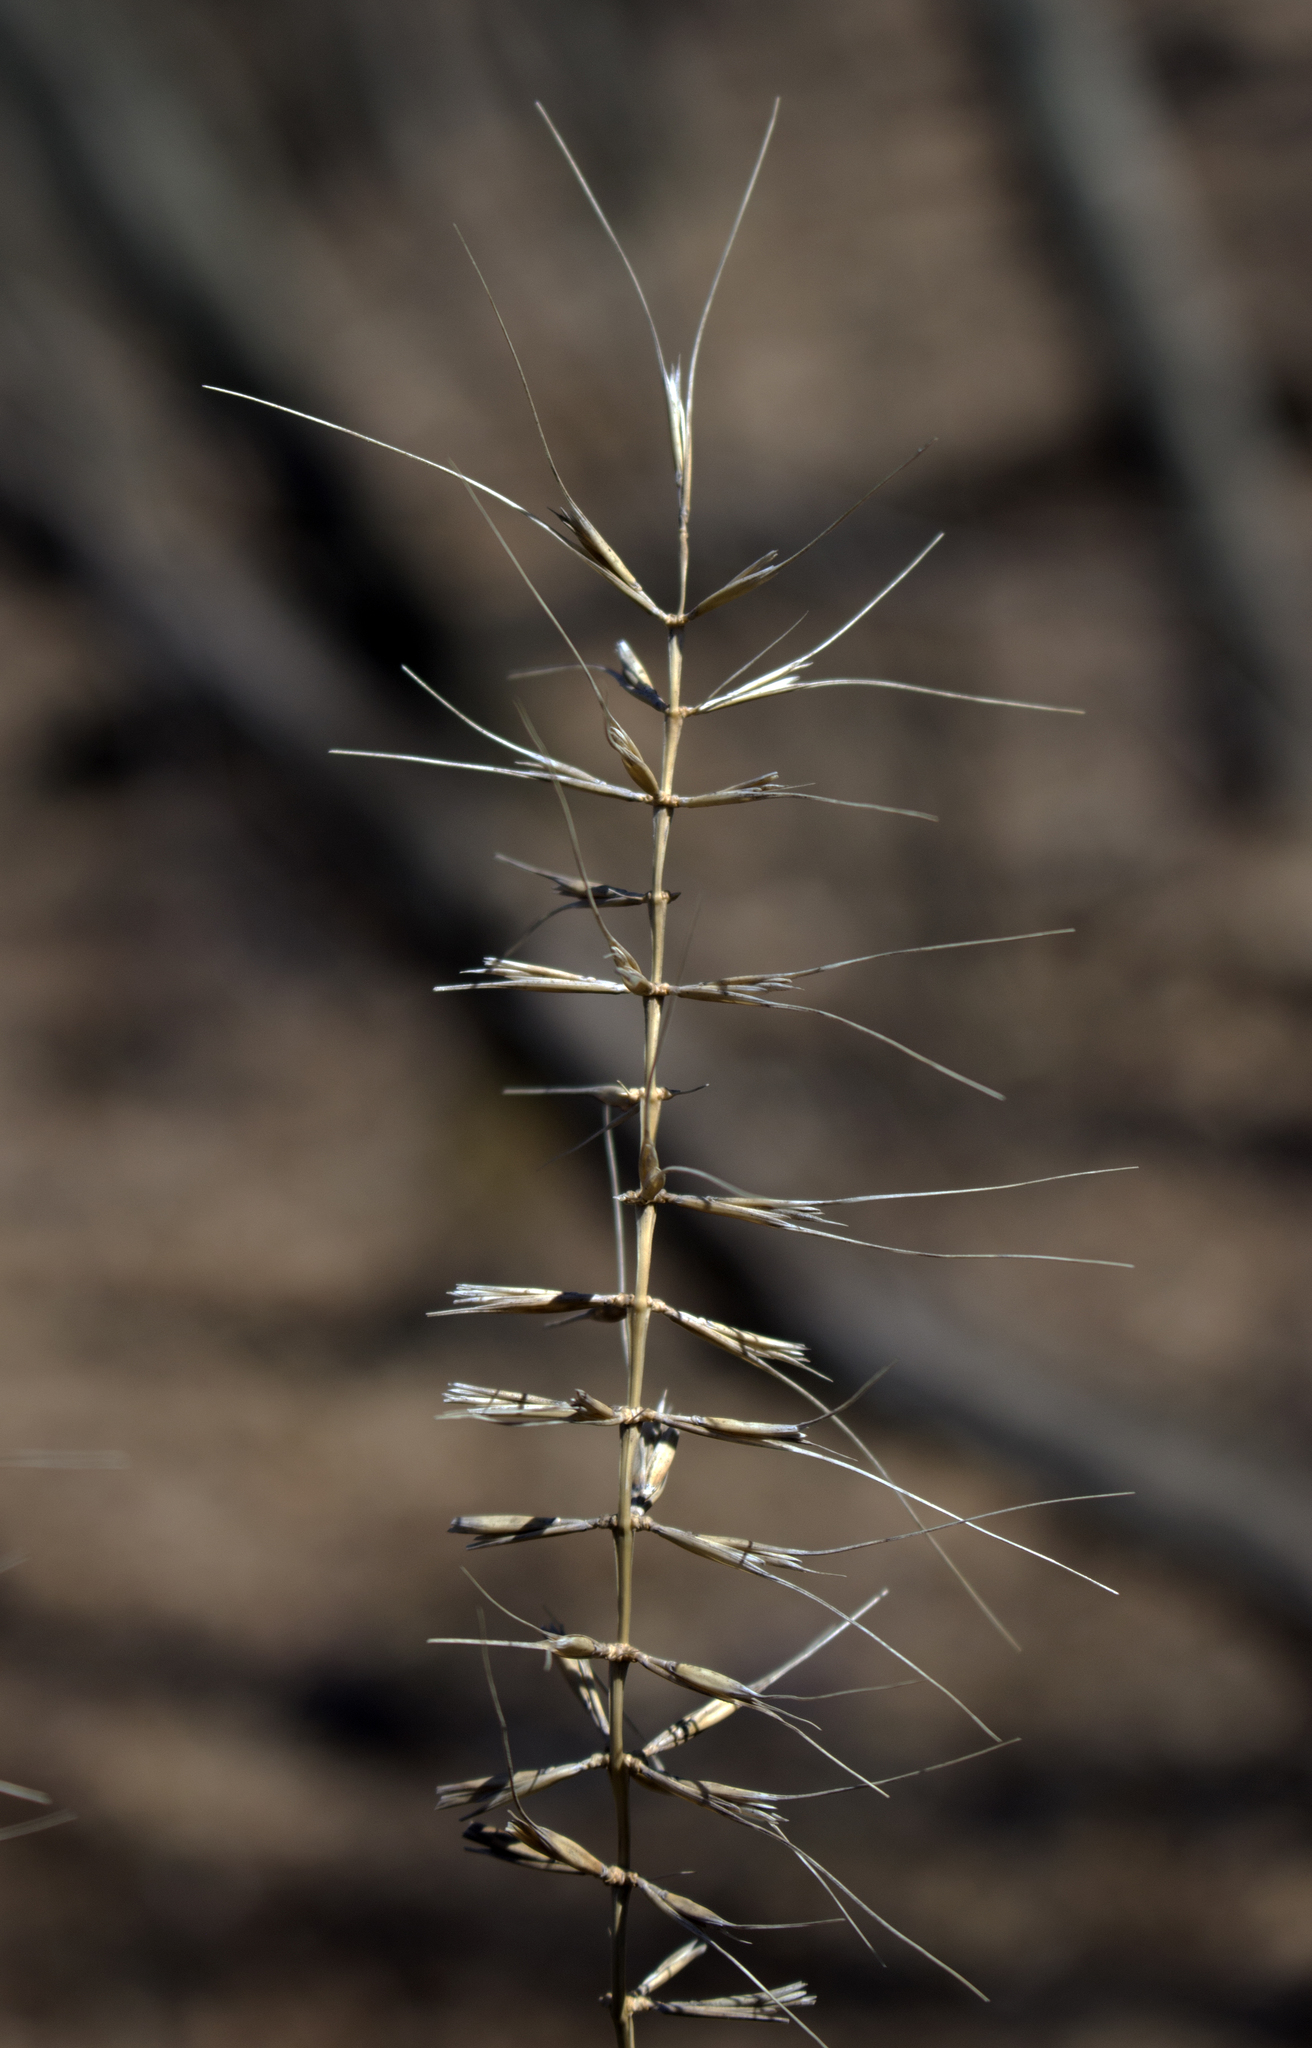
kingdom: Plantae
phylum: Tracheophyta
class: Liliopsida
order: Poales
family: Poaceae
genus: Elymus
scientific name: Elymus hystrix
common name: Bottlebrush grass
